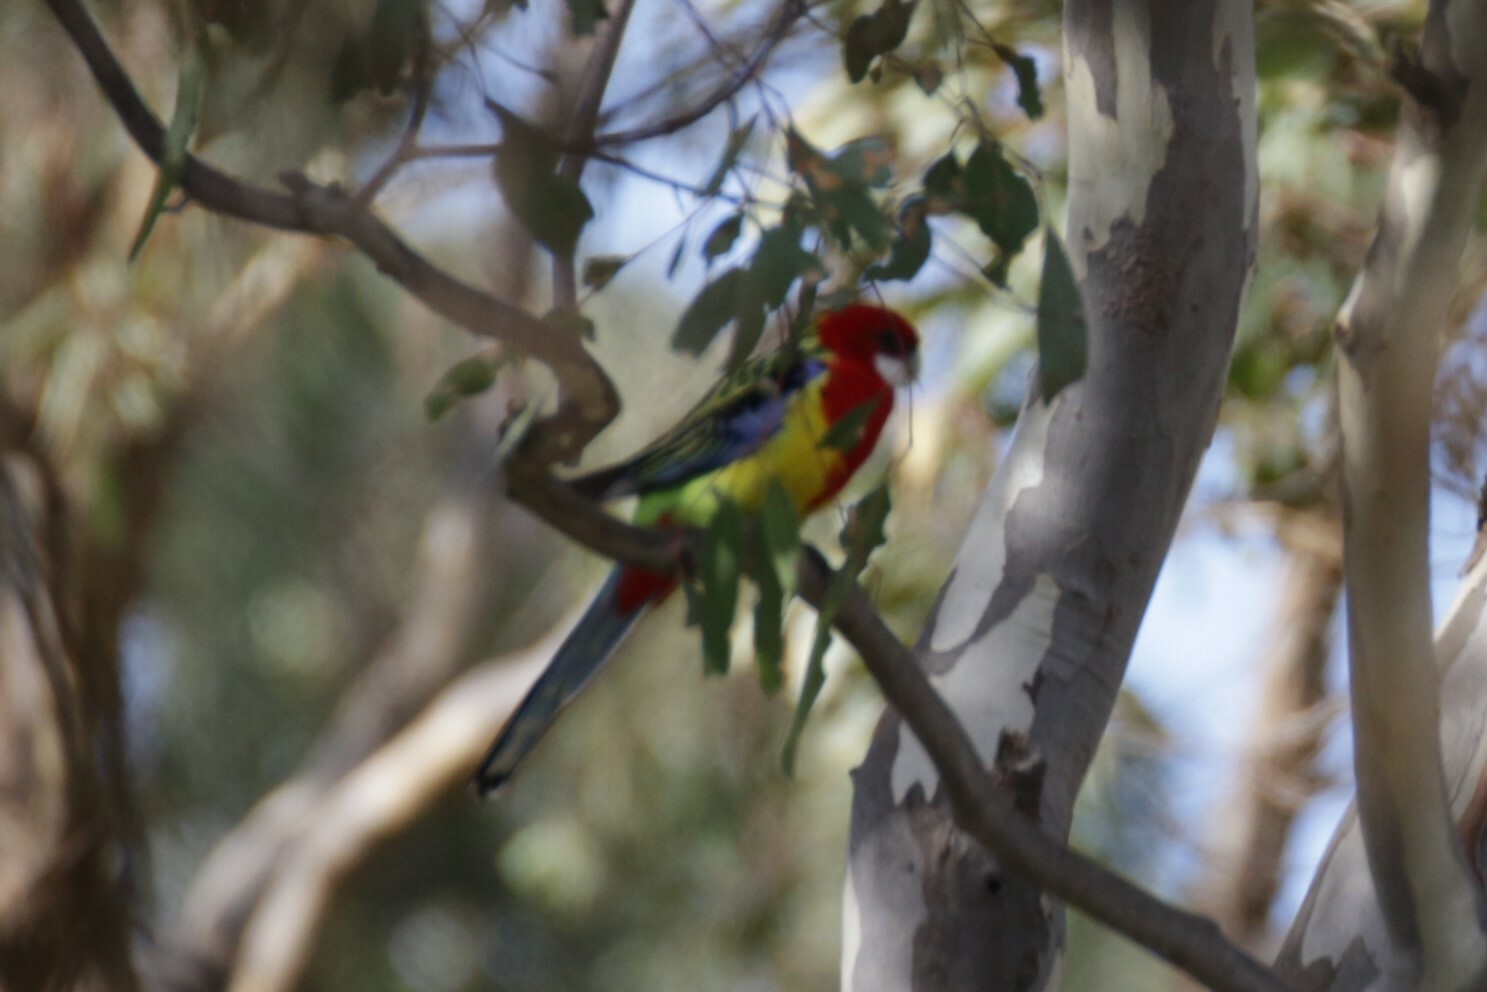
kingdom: Animalia
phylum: Chordata
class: Aves
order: Psittaciformes
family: Psittacidae
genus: Platycercus
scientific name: Platycercus eximius
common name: Eastern rosella
